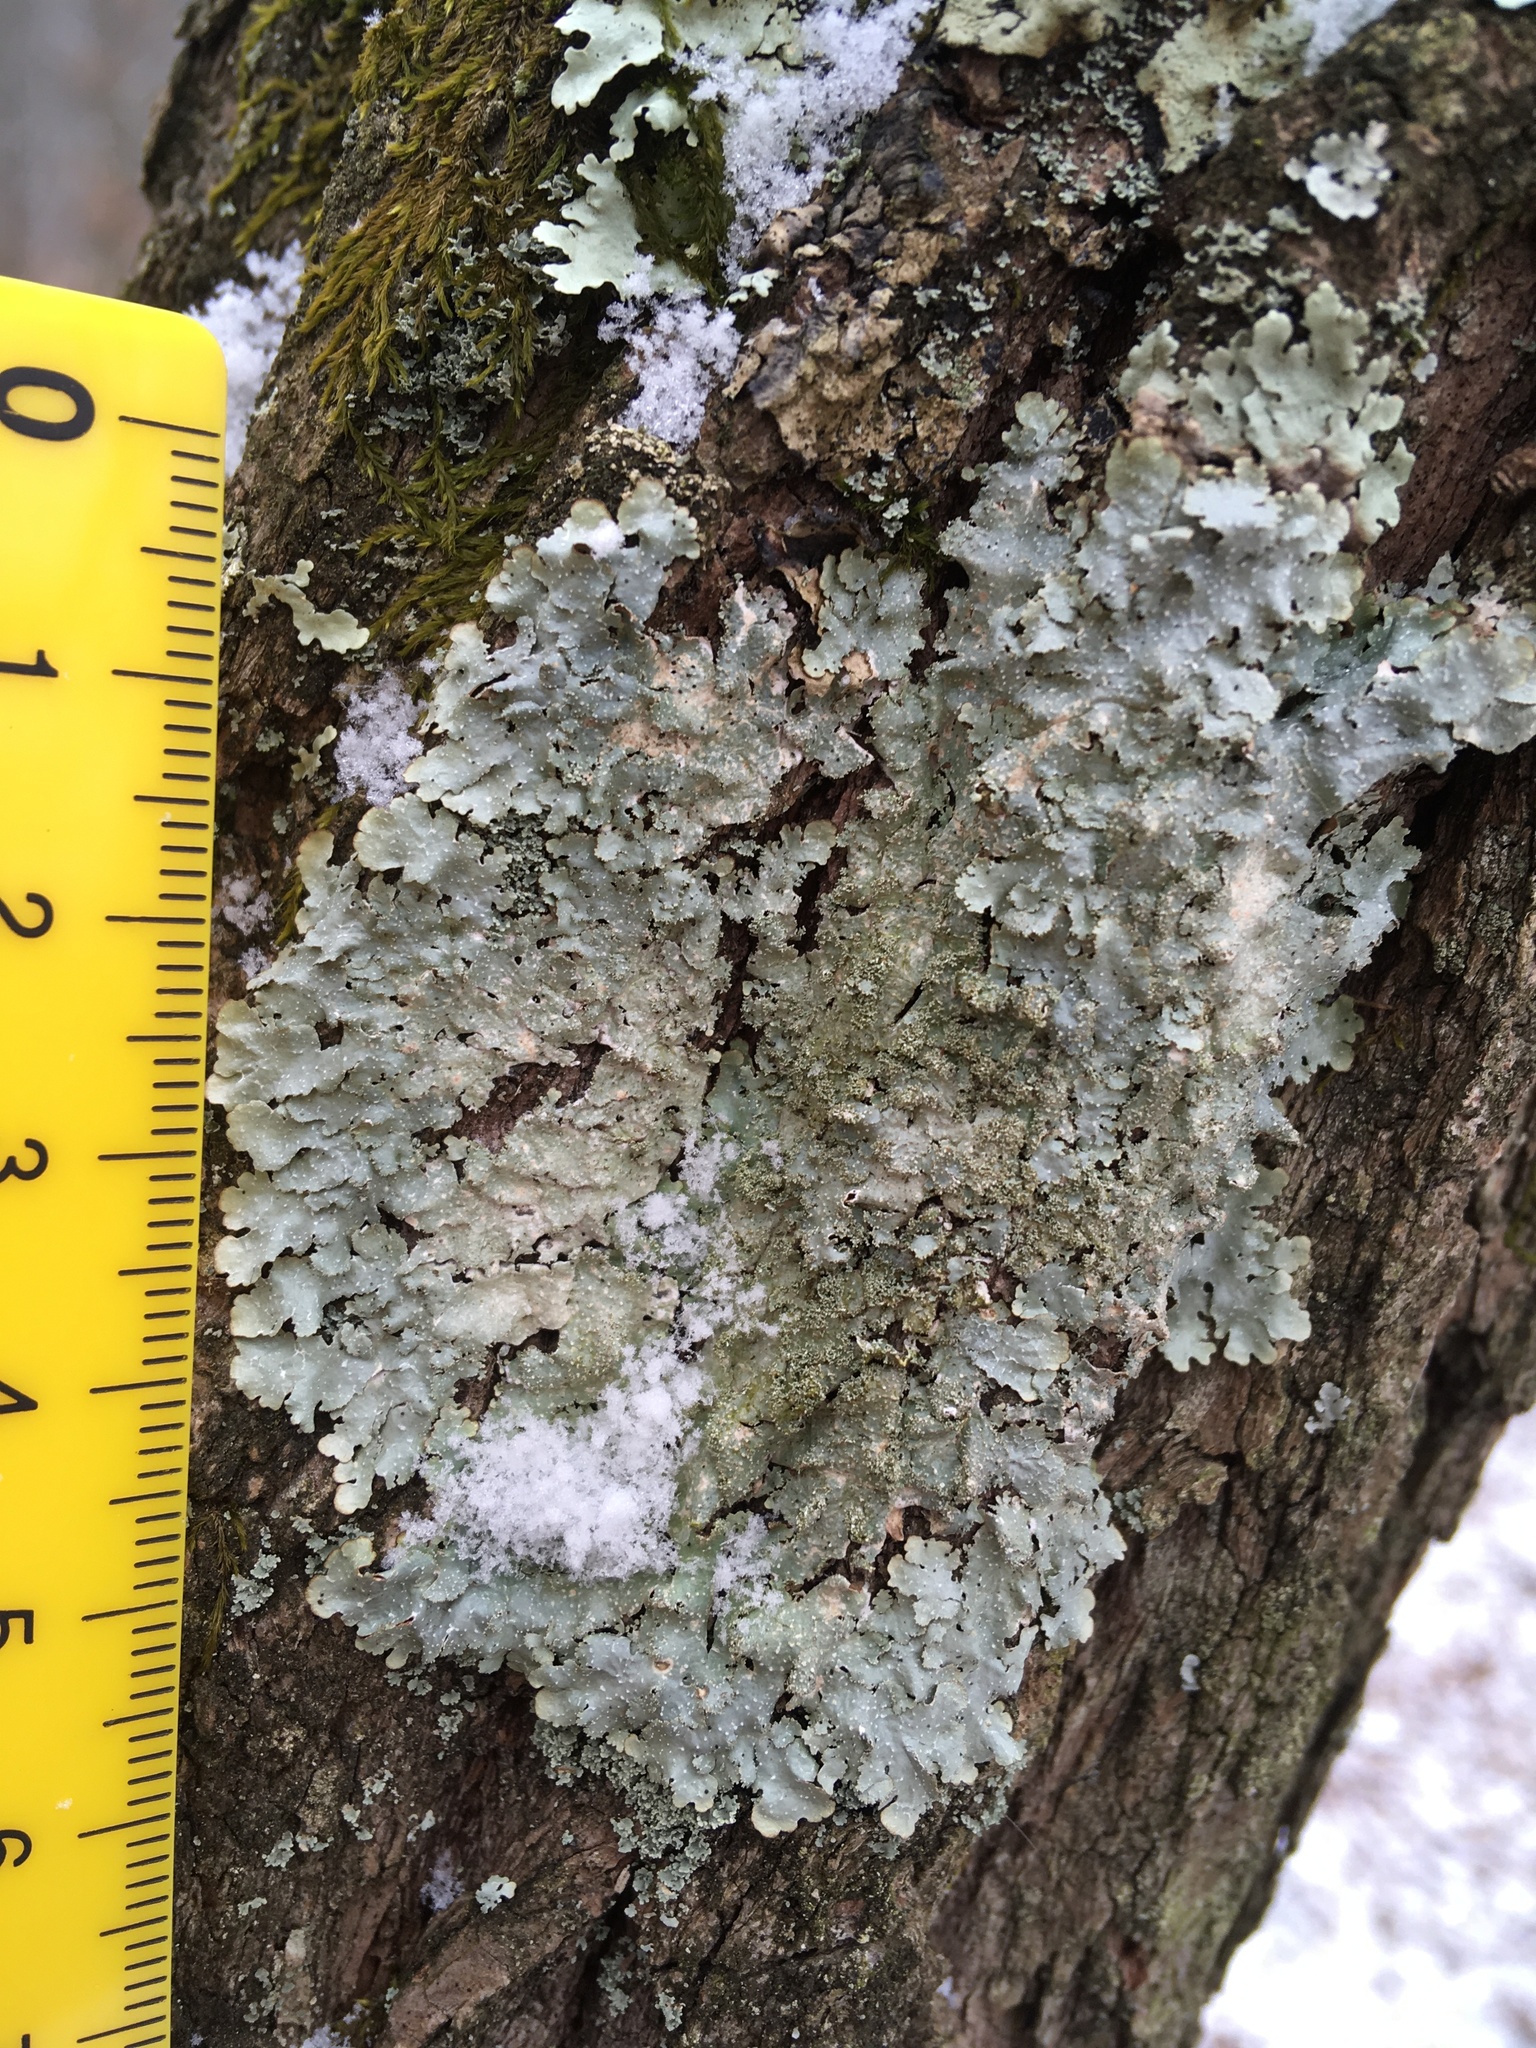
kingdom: Fungi
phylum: Ascomycota
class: Lecanoromycetes
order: Lecanorales
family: Parmeliaceae
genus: Punctelia
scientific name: Punctelia rudecta
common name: Rough speckled shield lichen
